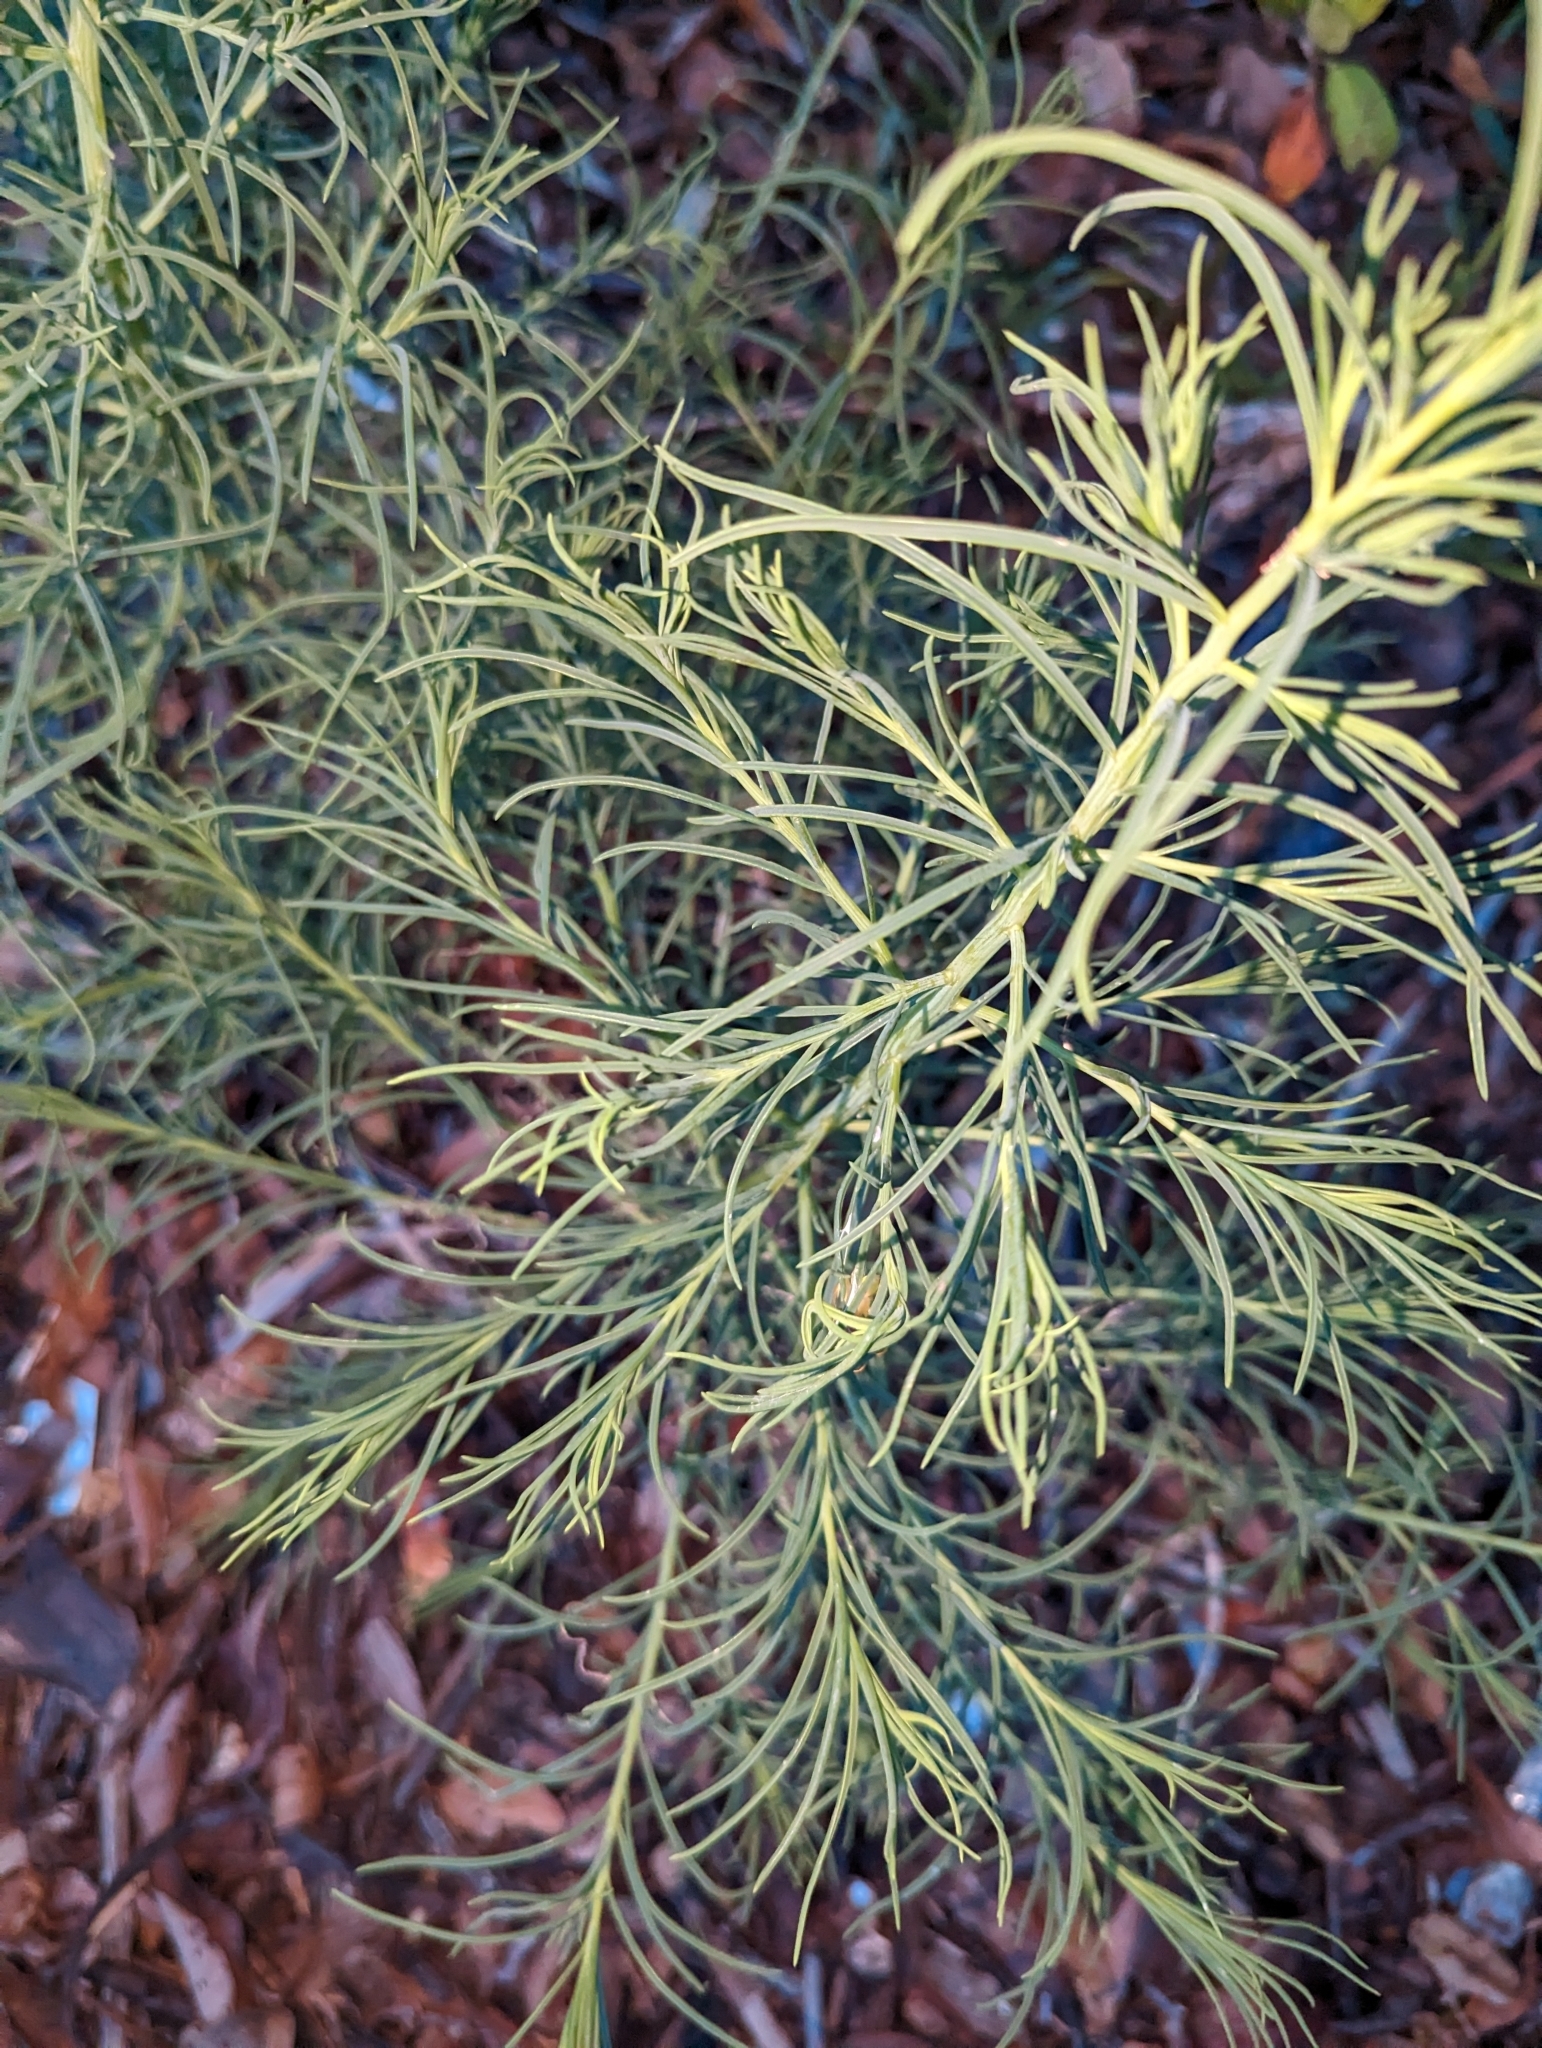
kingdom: Plantae
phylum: Tracheophyta
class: Magnoliopsida
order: Caryophyllales
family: Amaranthaceae
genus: Suaeda
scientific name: Suaeda linearis
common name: Annual seepweed
